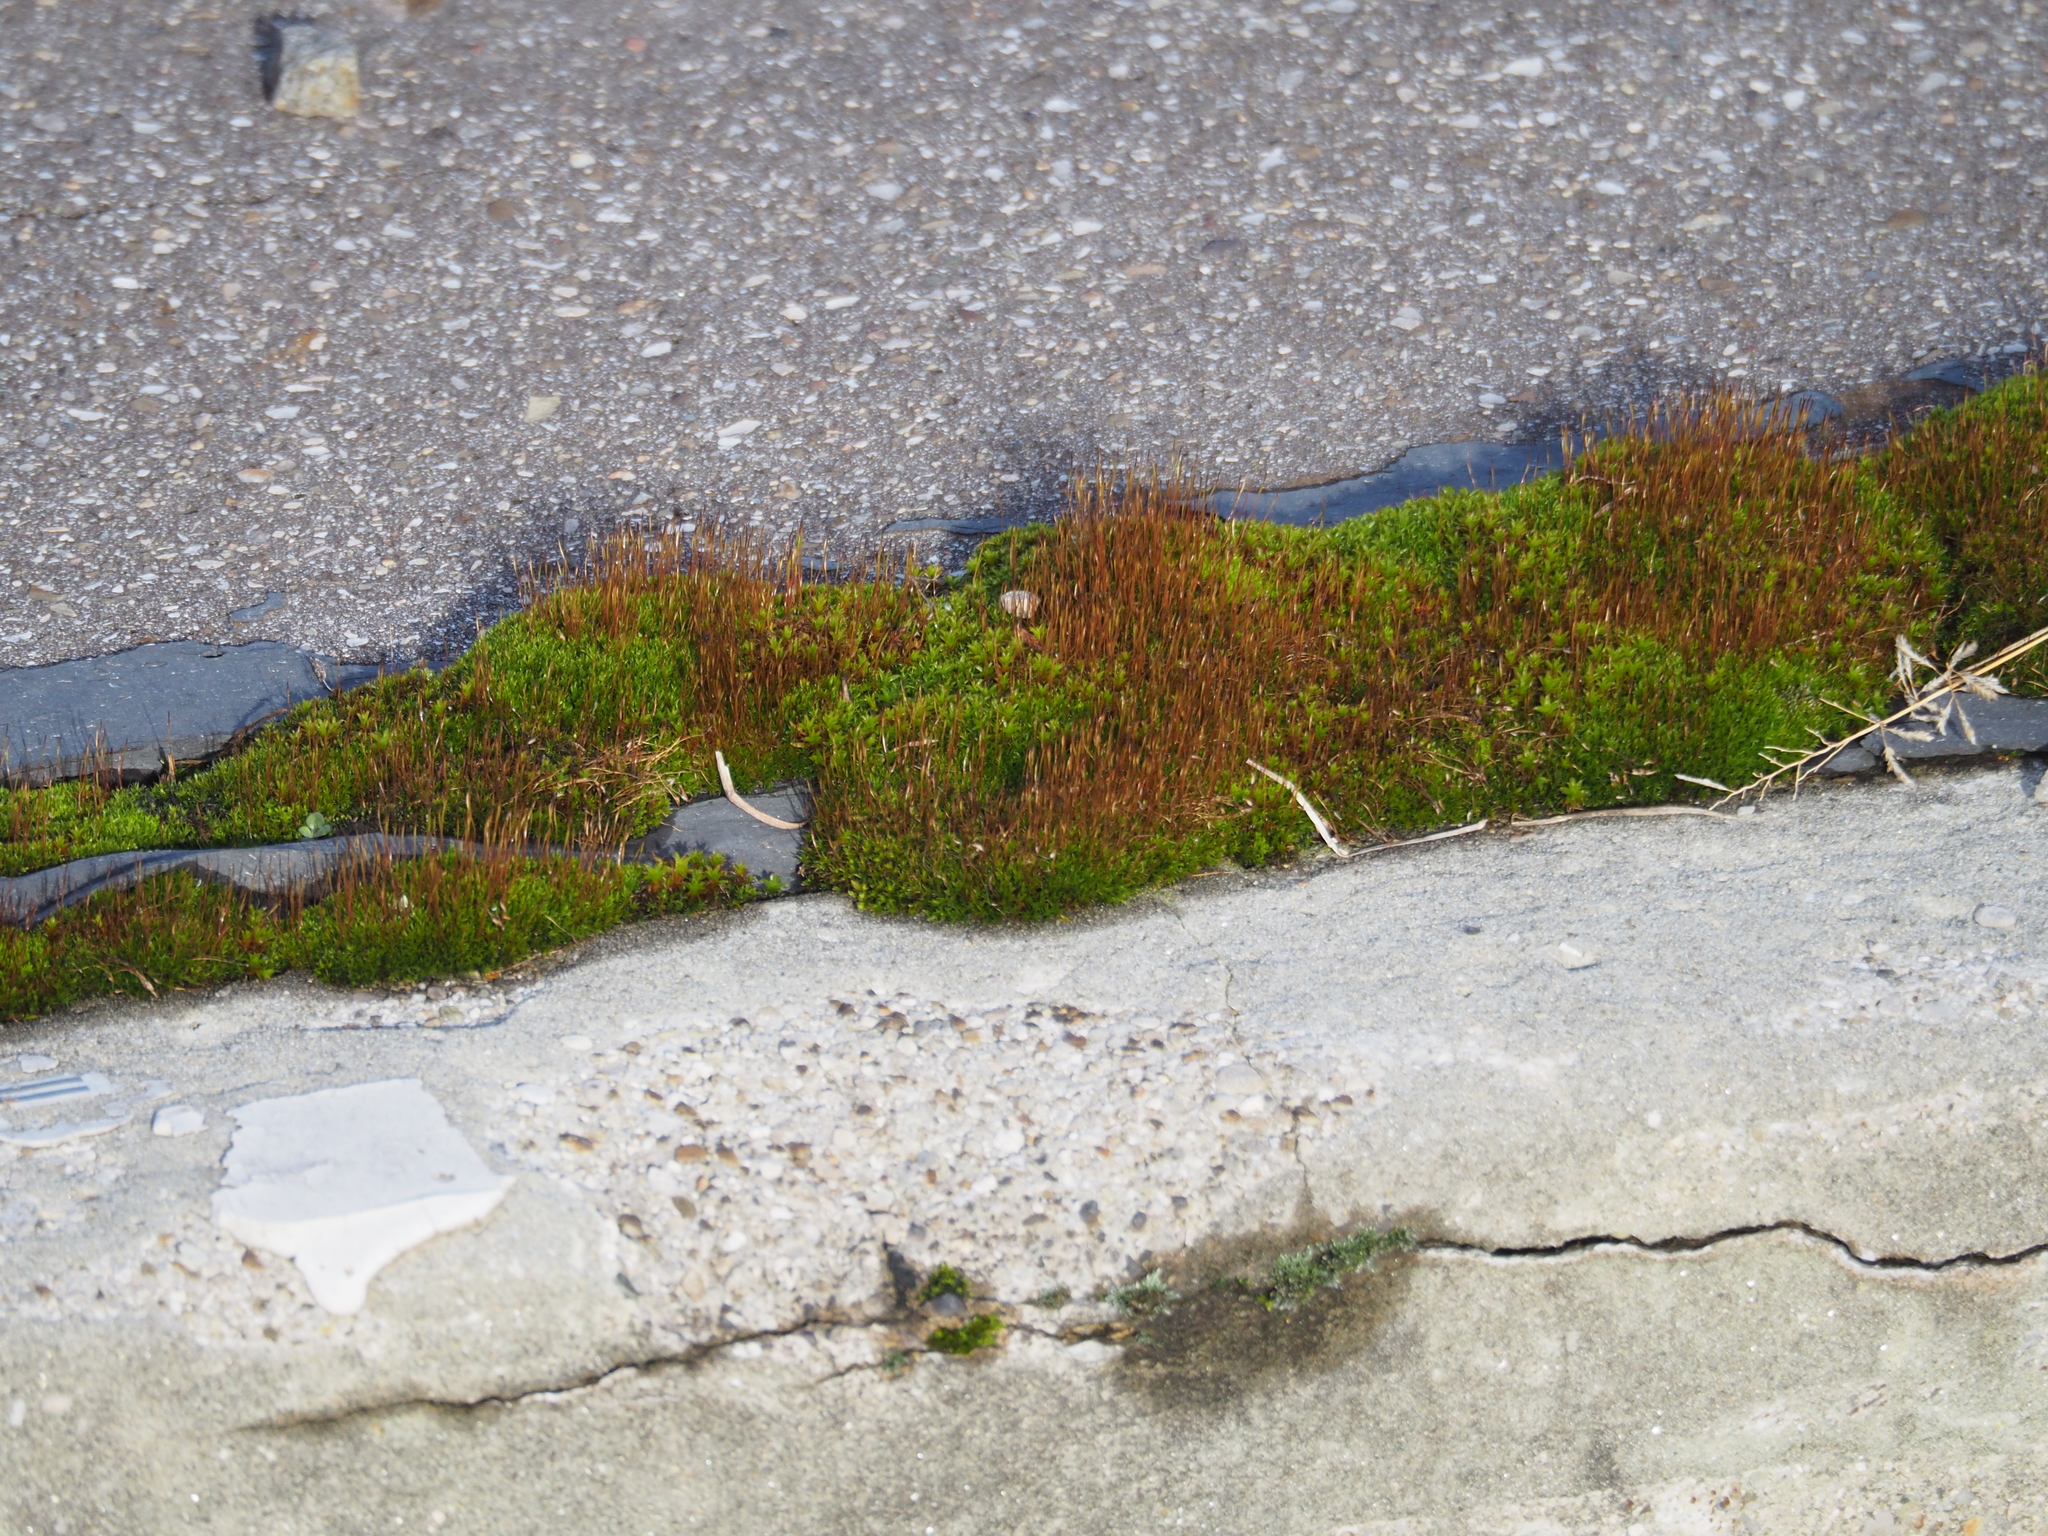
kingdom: Plantae
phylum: Bryophyta
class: Bryopsida
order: Dicranales
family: Ditrichaceae
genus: Ceratodon
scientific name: Ceratodon purpureus
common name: Redshank
